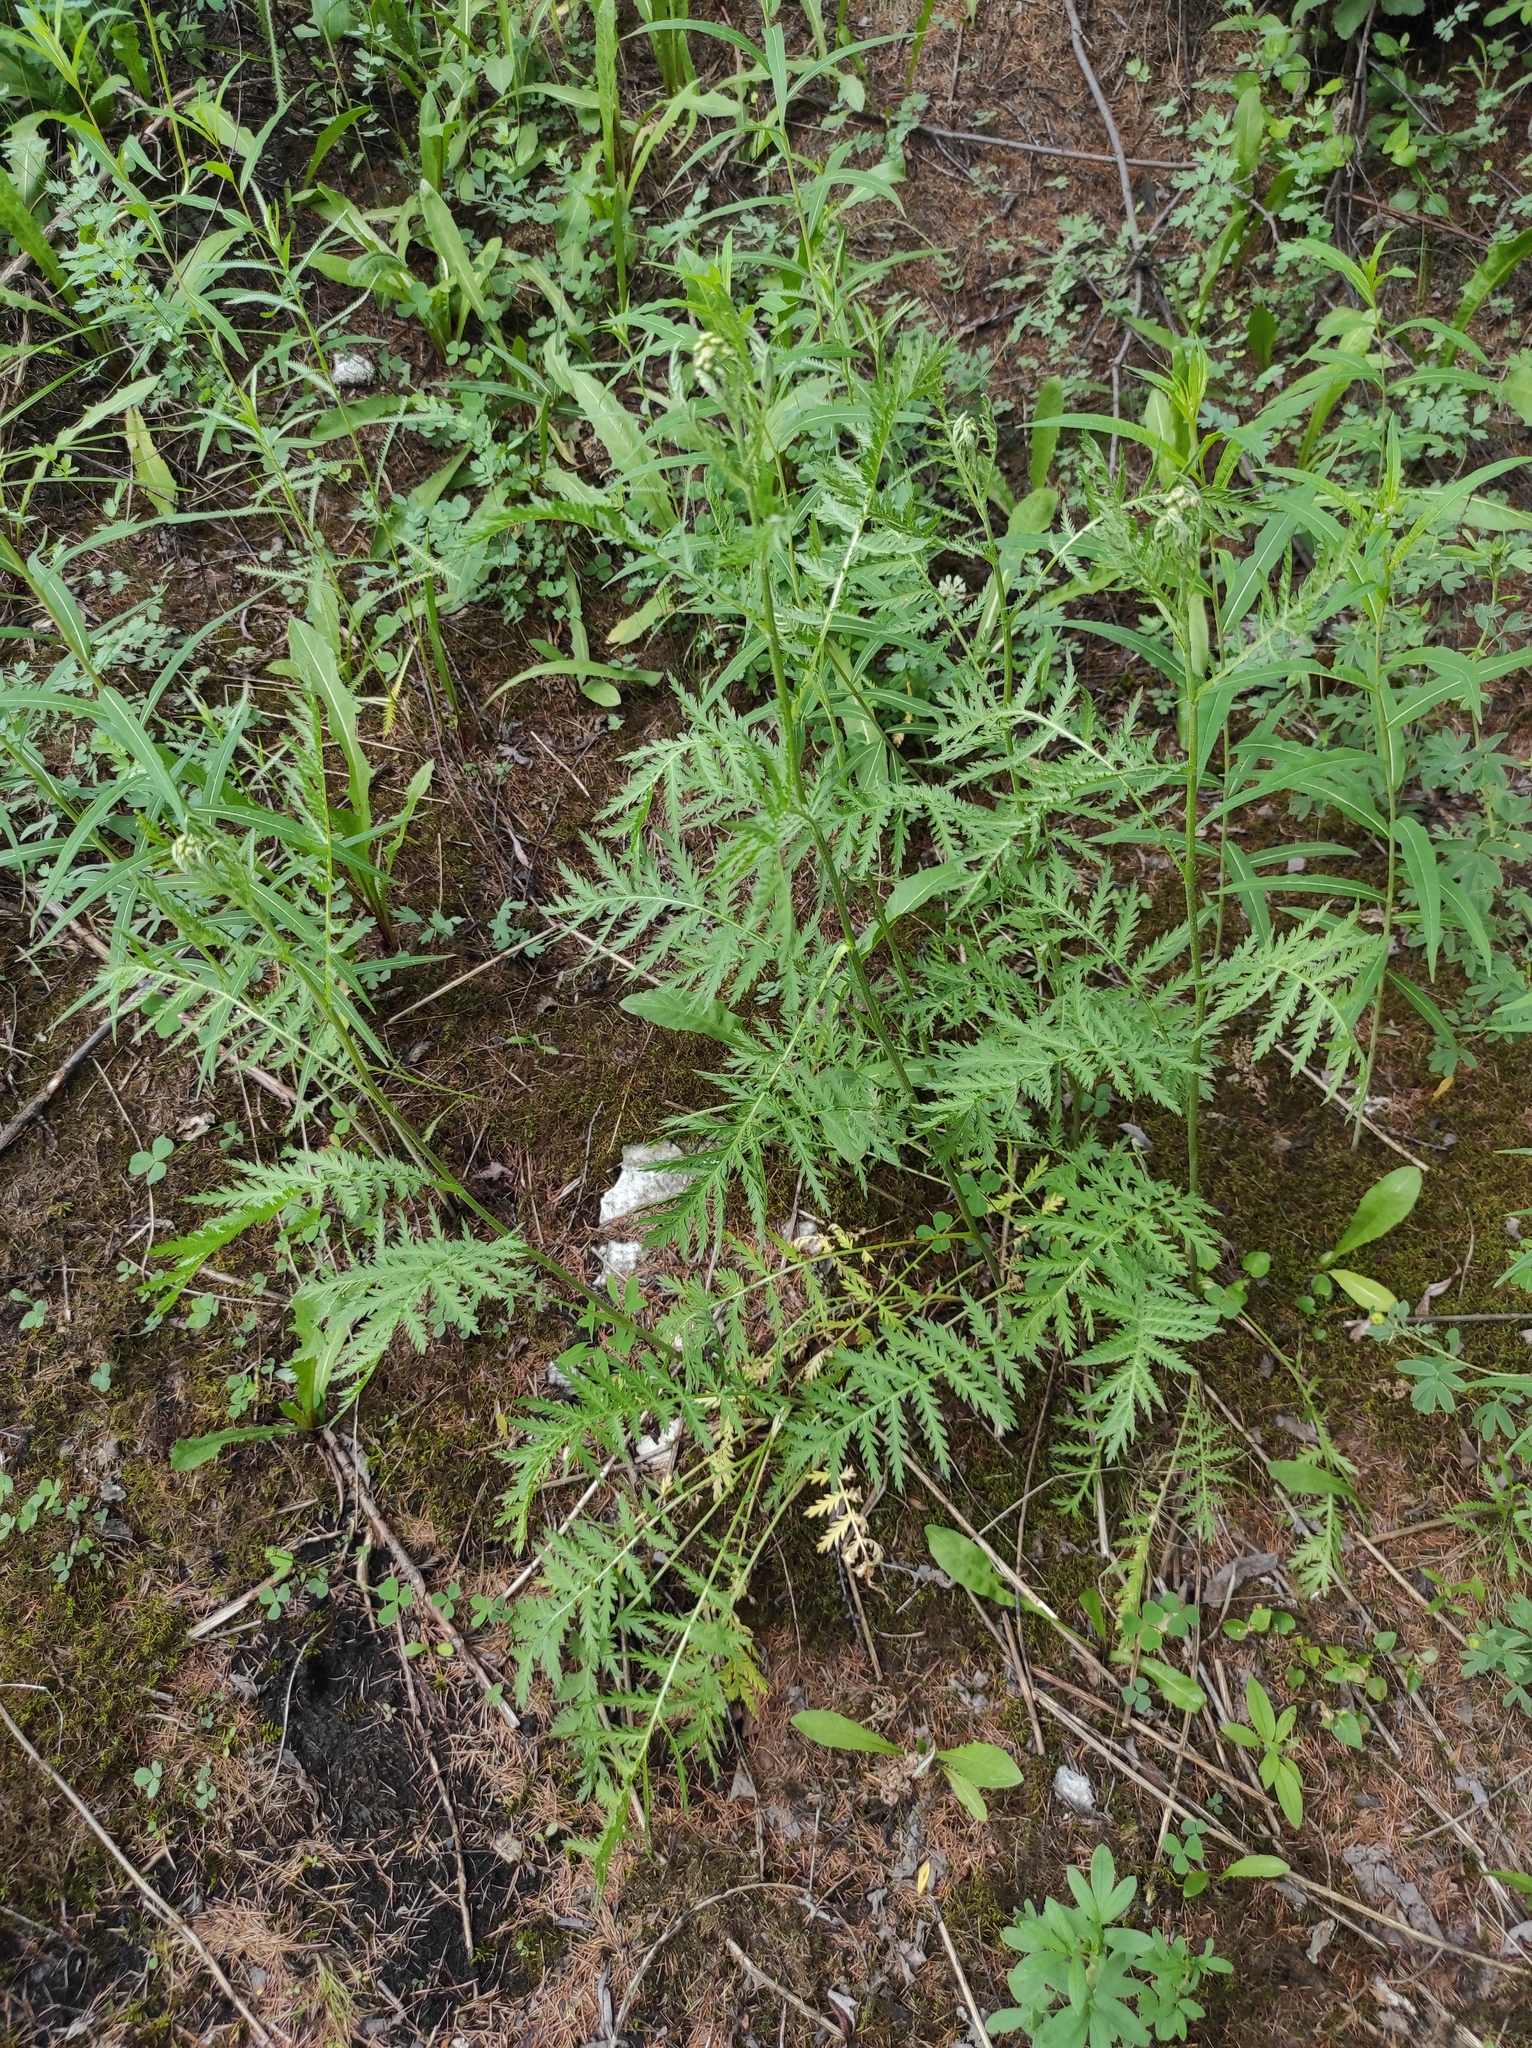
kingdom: Plantae
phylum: Tracheophyta
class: Magnoliopsida
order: Asterales
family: Asteraceae
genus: Tanacetum
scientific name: Tanacetum vulgare
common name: Common tansy
